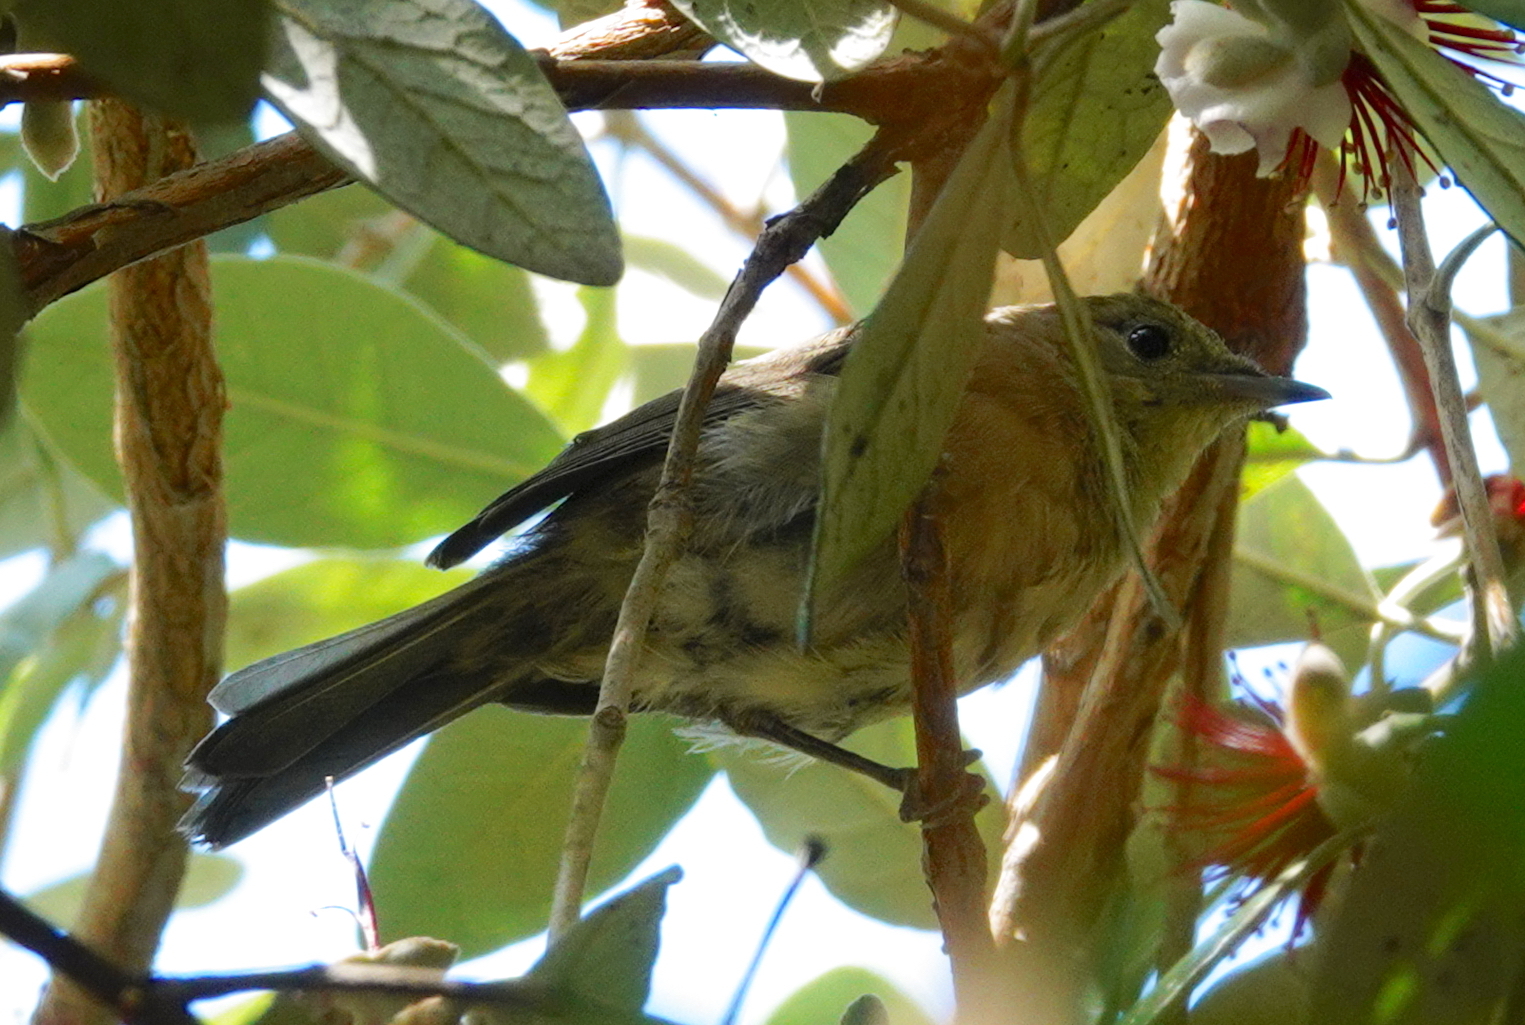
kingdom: Animalia
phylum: Chordata
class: Aves
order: Passeriformes
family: Sylviidae
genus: Sylvia
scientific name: Sylvia atricapilla
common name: Eurasian blackcap
